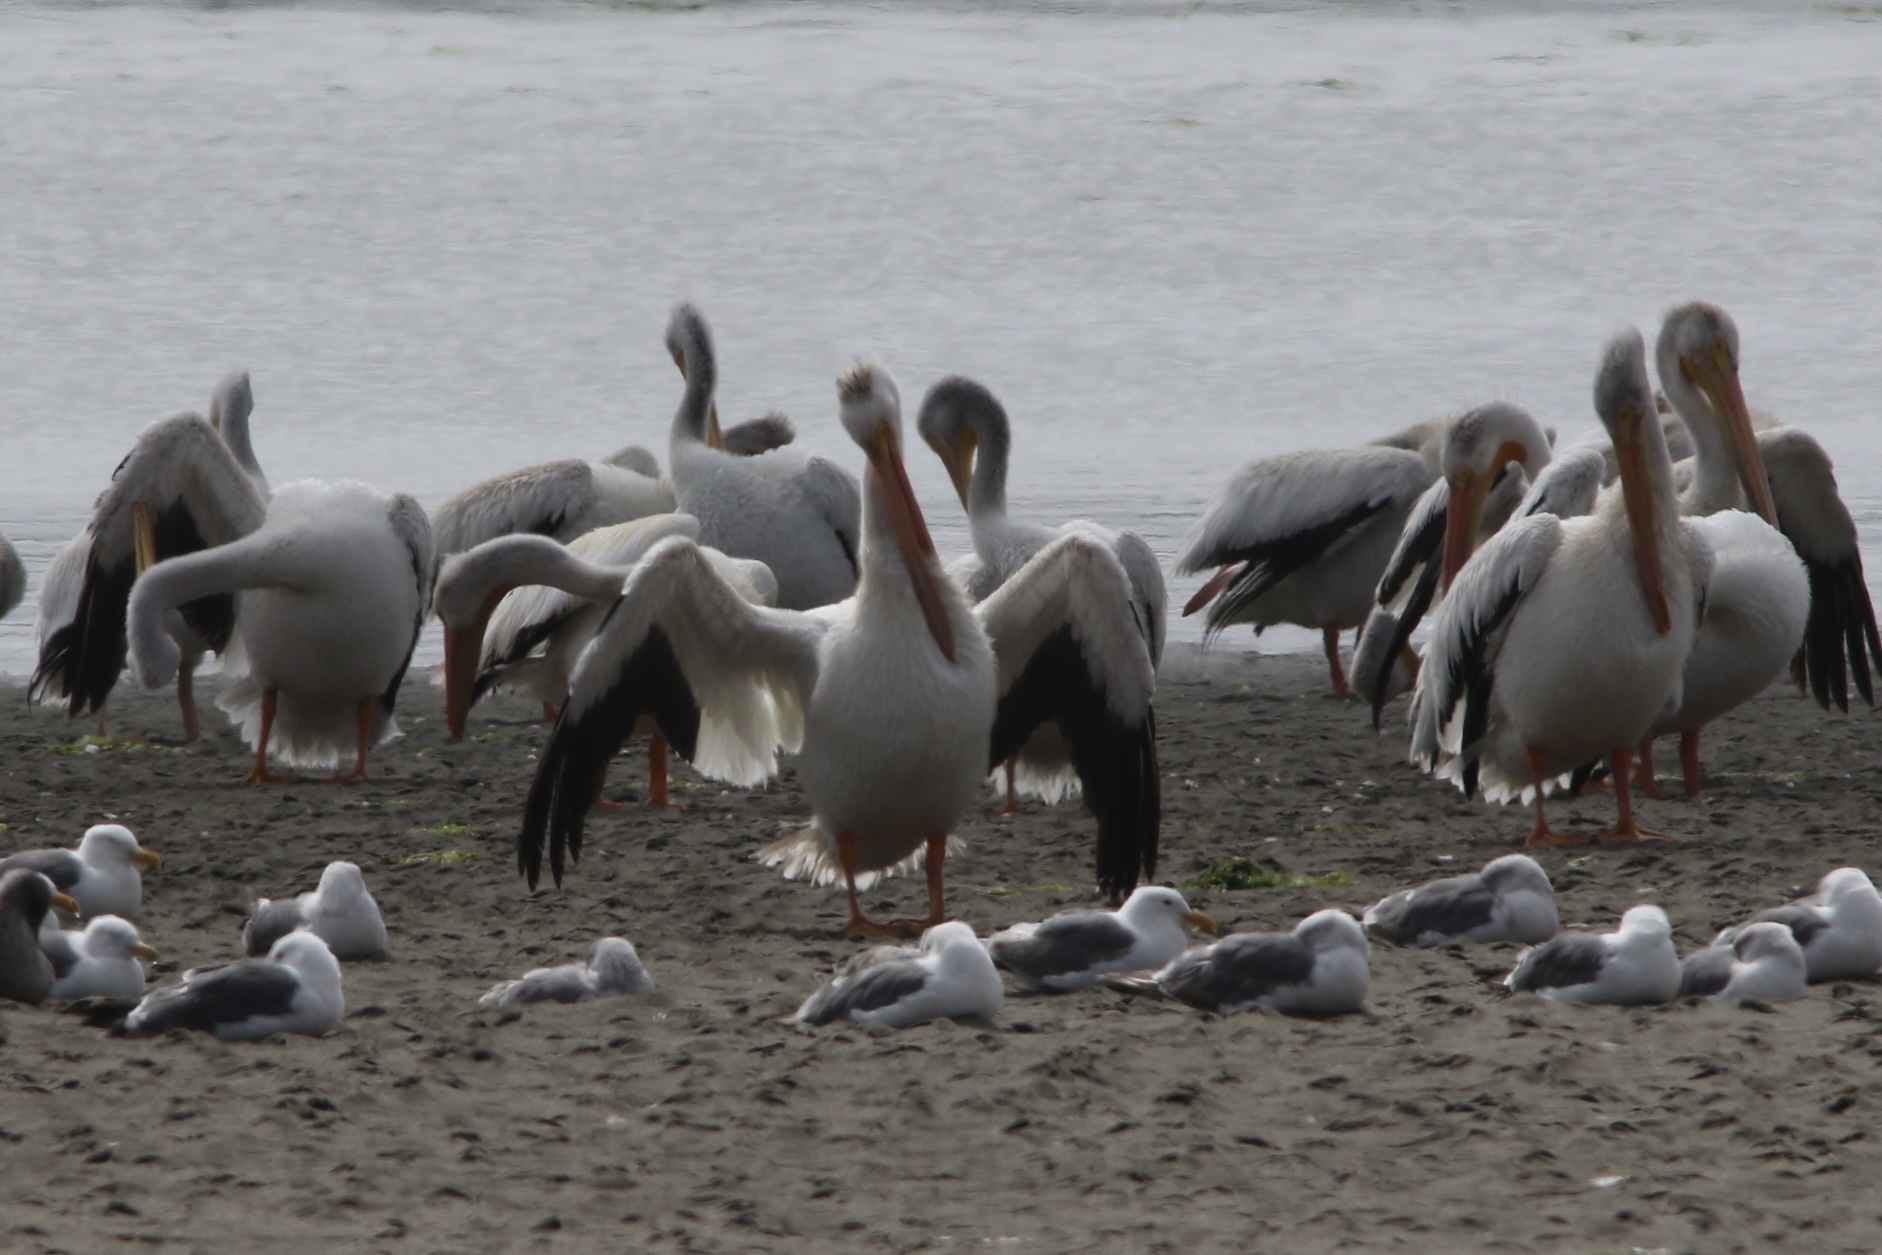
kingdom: Animalia
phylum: Chordata
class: Aves
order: Pelecaniformes
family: Pelecanidae
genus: Pelecanus
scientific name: Pelecanus erythrorhynchos
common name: American white pelican
